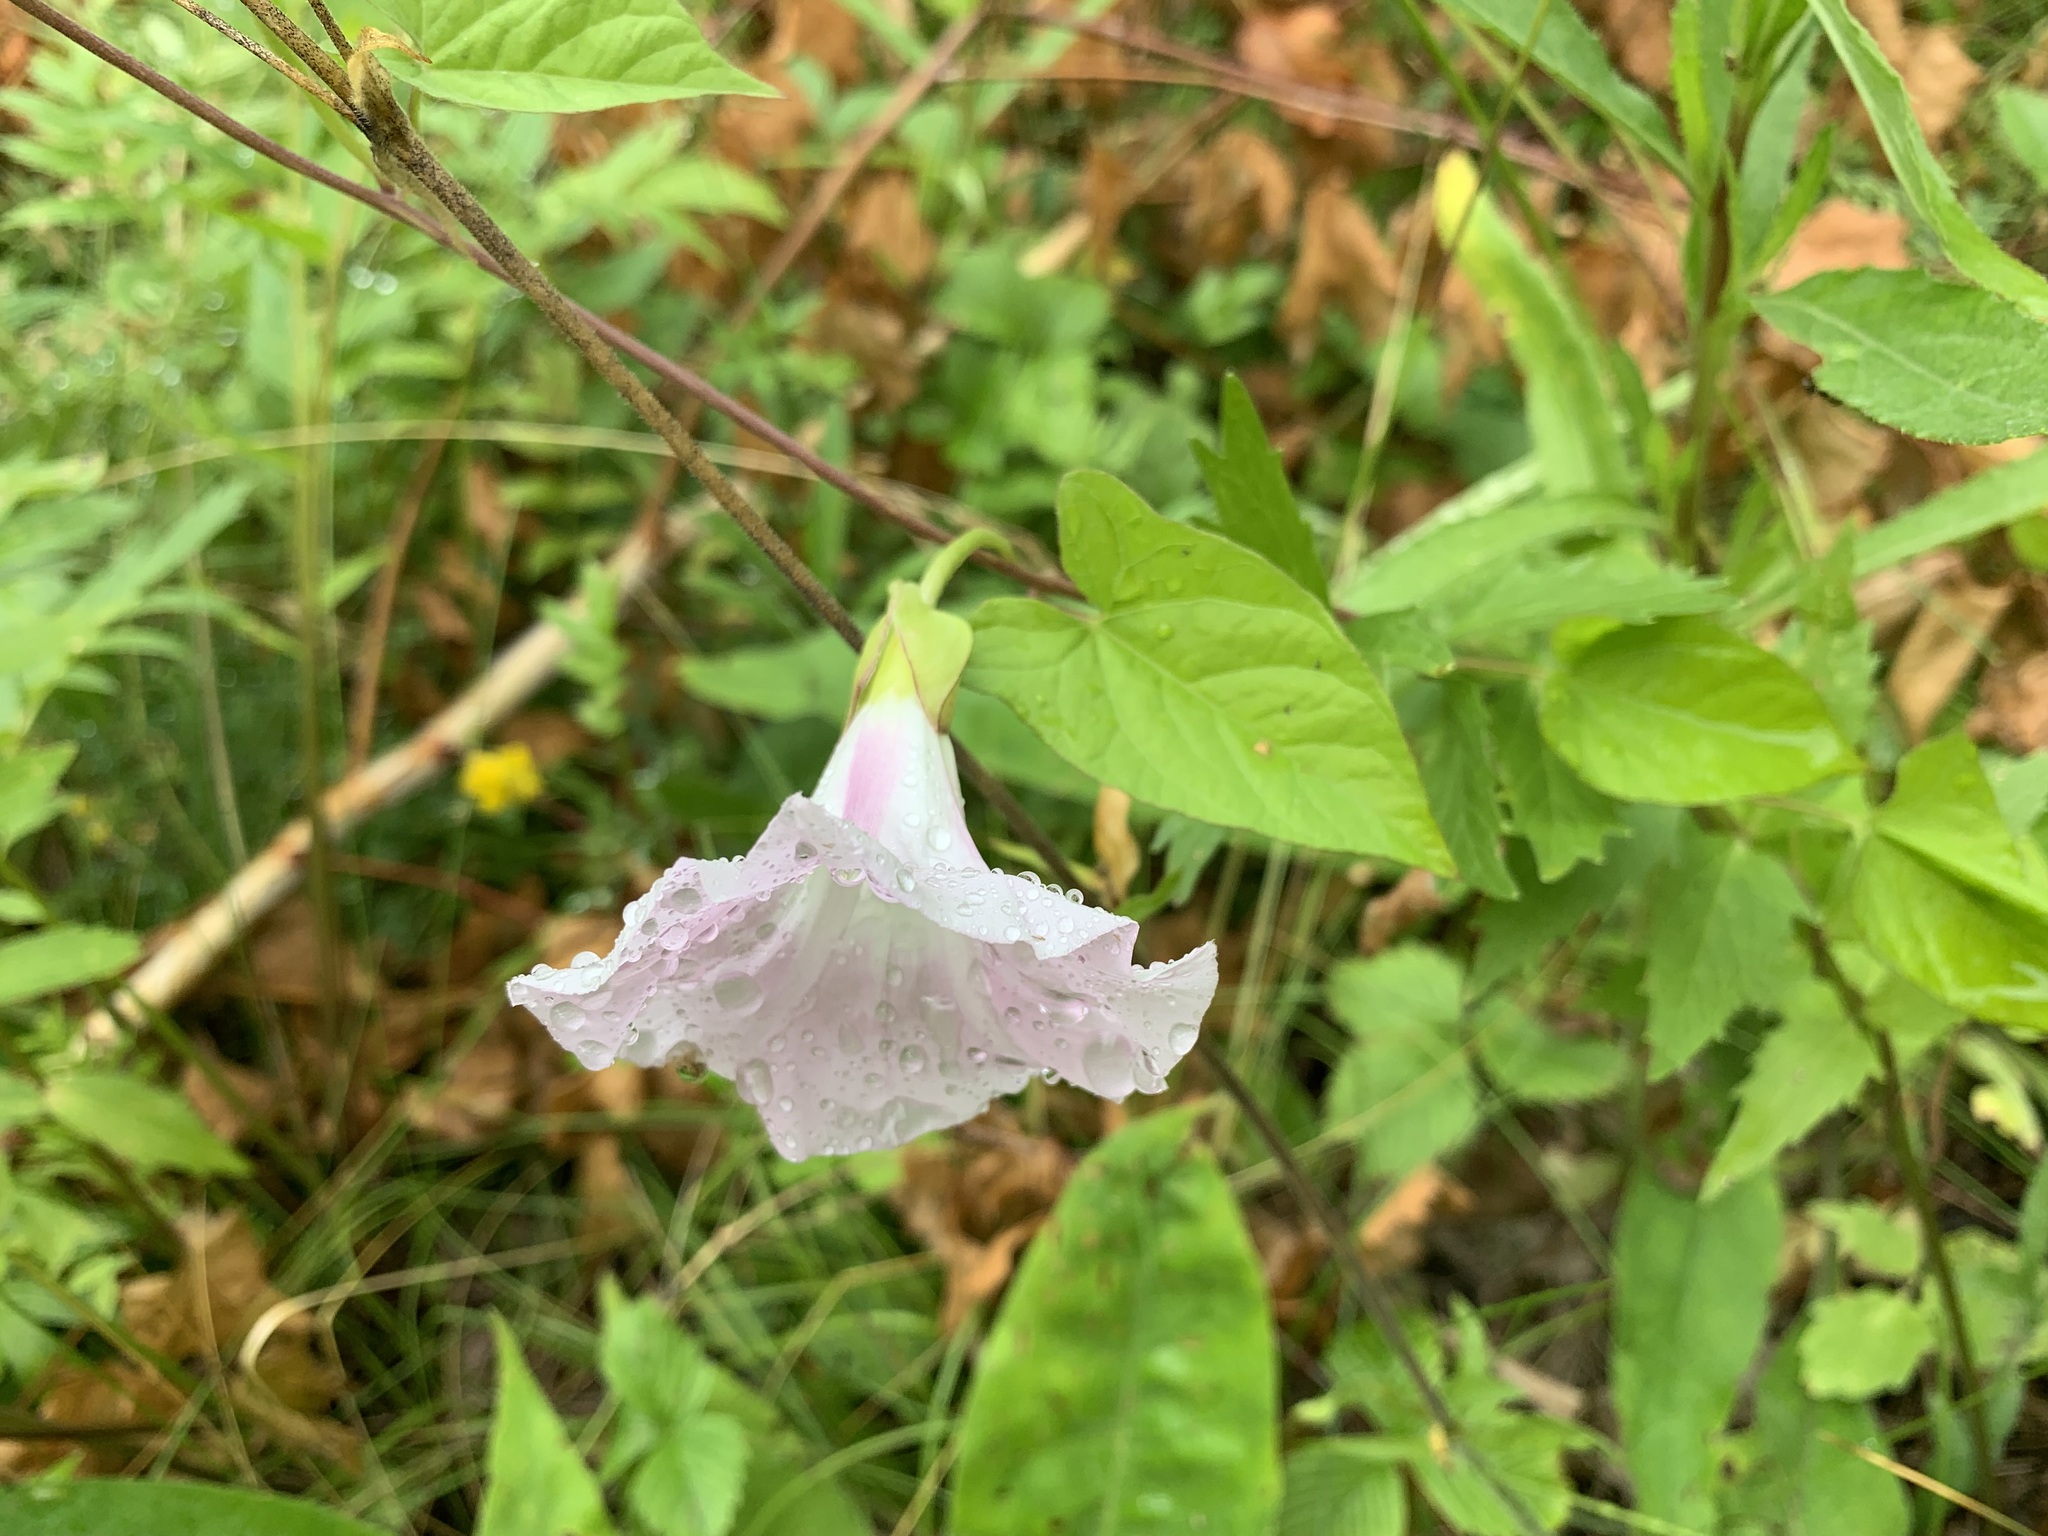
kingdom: Plantae
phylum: Tracheophyta
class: Magnoliopsida
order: Solanales
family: Convolvulaceae
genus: Calystegia
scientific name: Calystegia sepium
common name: Hedge bindweed
